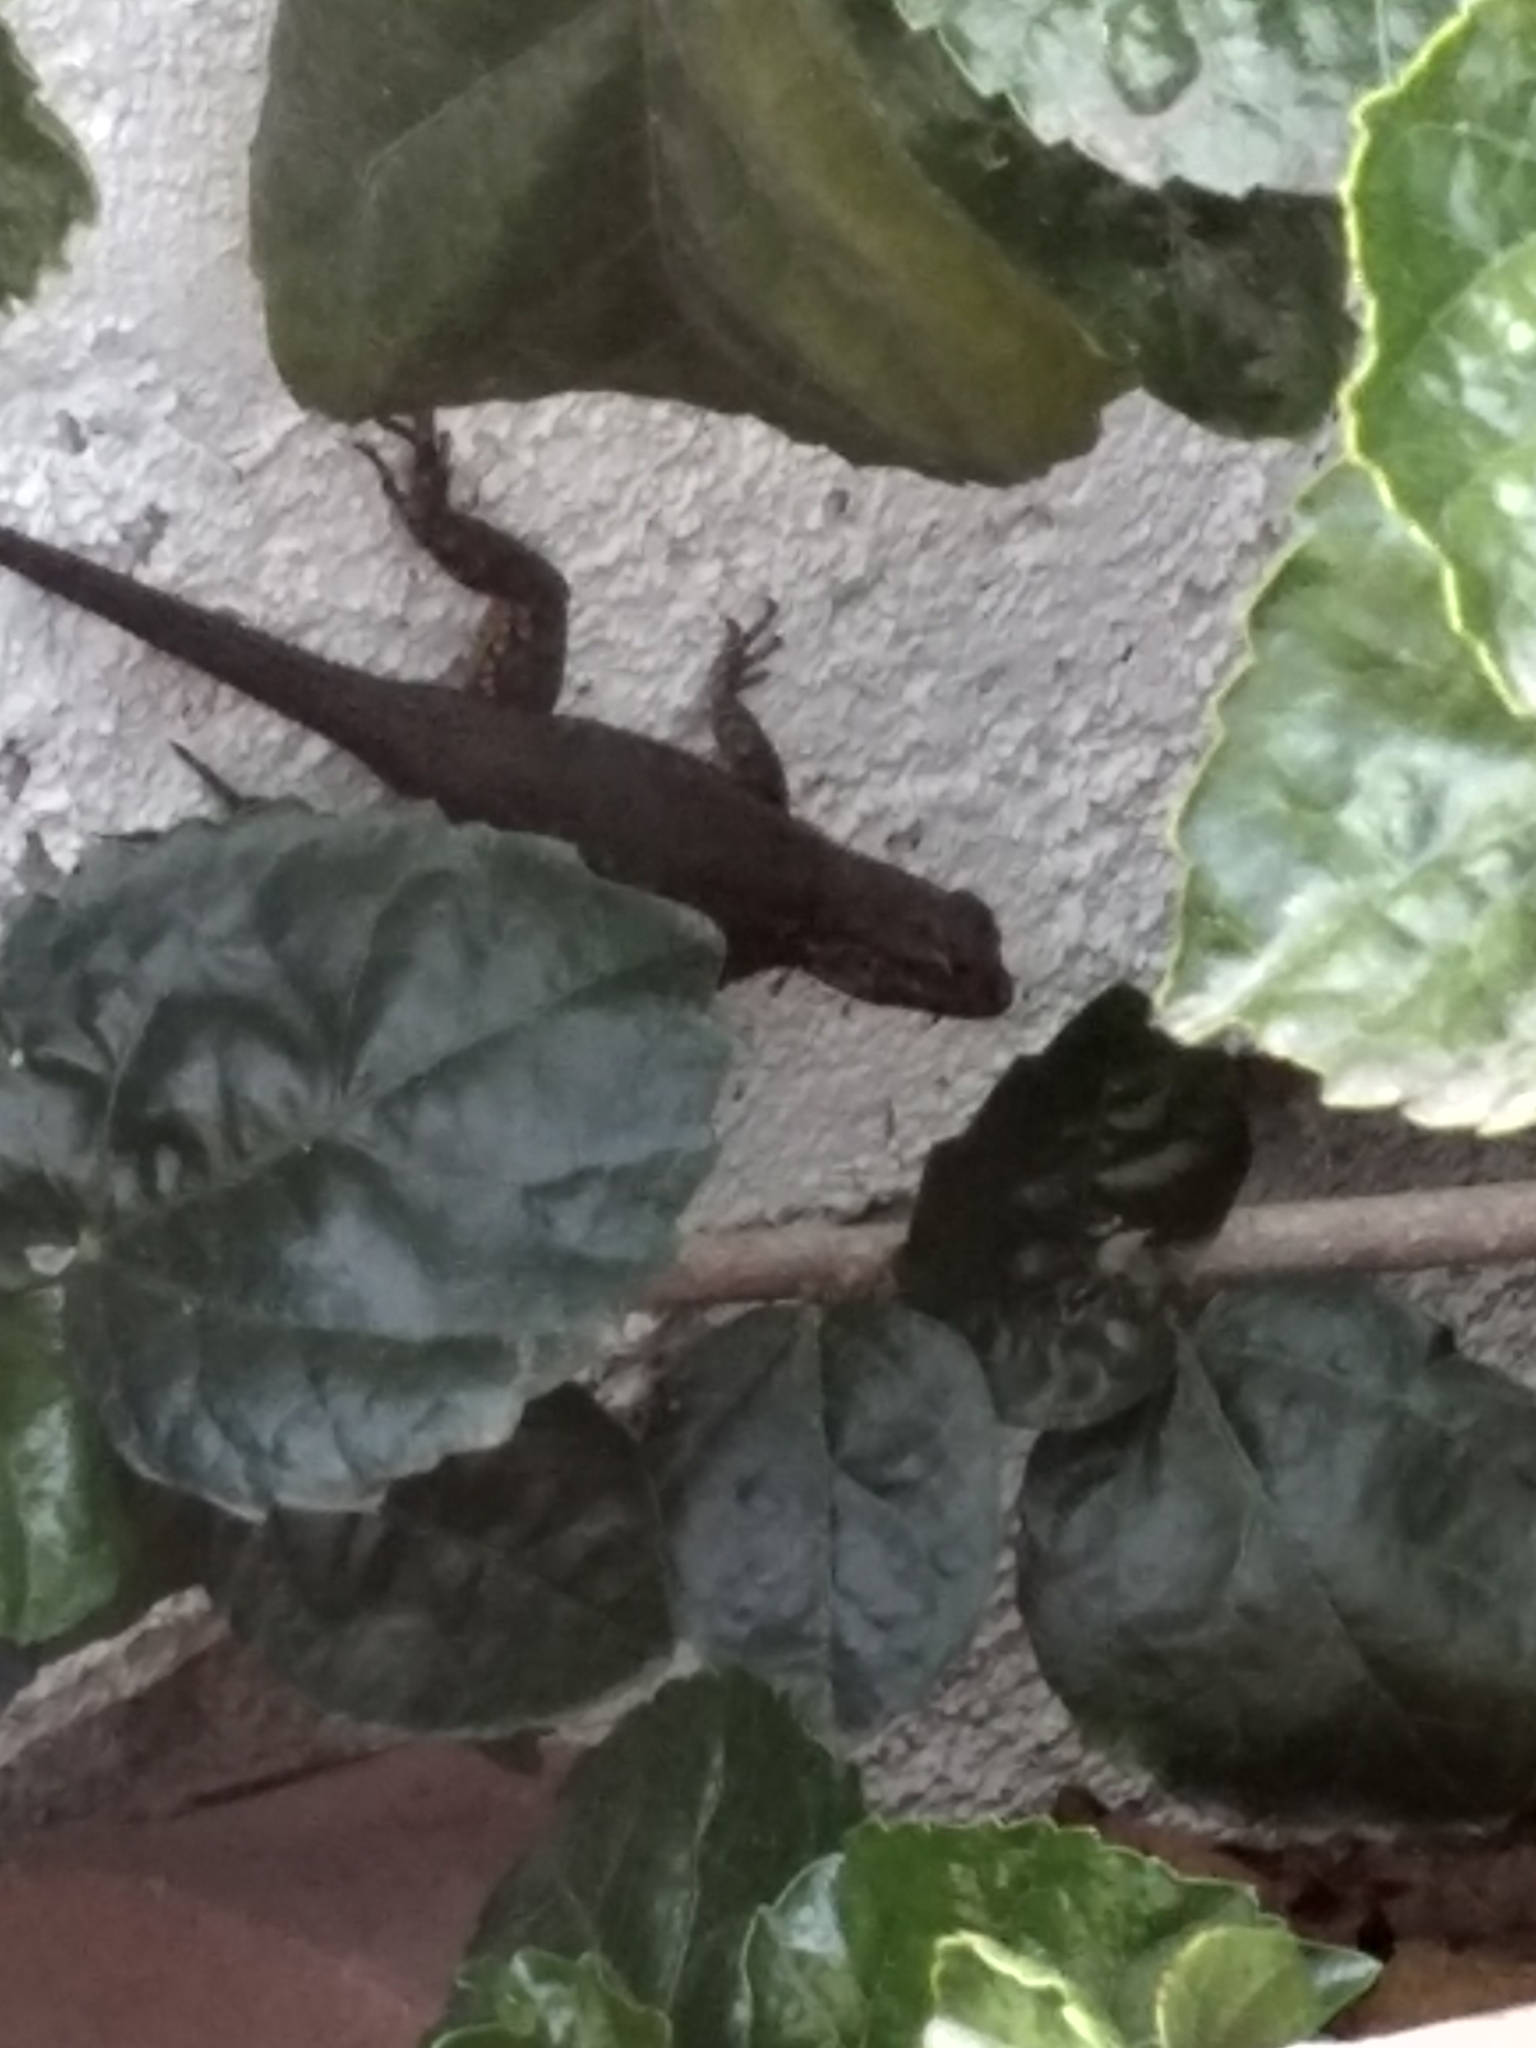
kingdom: Animalia
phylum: Chordata
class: Squamata
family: Phrynosomatidae
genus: Sceloporus
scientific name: Sceloporus occidentalis
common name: Western fence lizard
